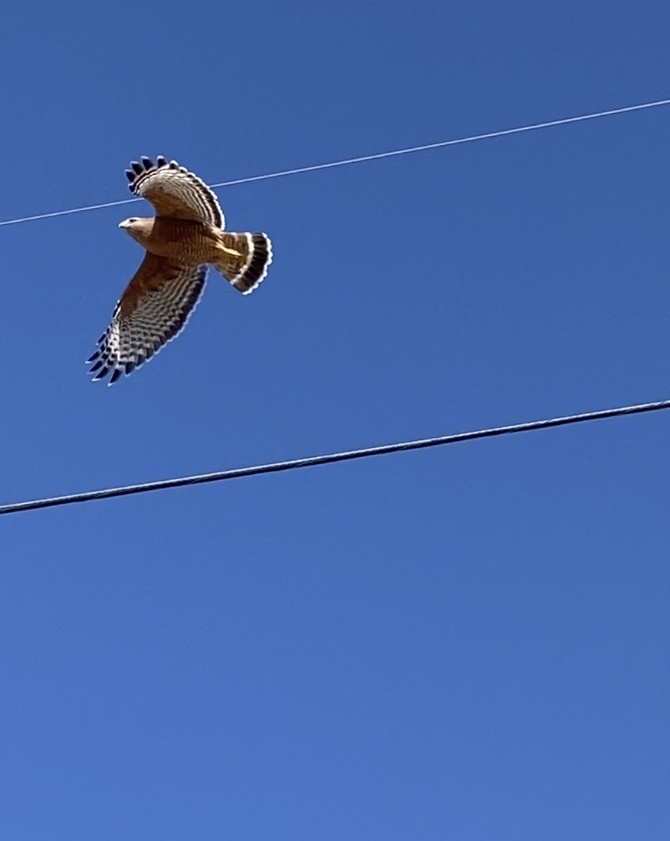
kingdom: Animalia
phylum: Chordata
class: Aves
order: Accipitriformes
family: Accipitridae
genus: Buteo
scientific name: Buteo lineatus
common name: Red-shouldered hawk
